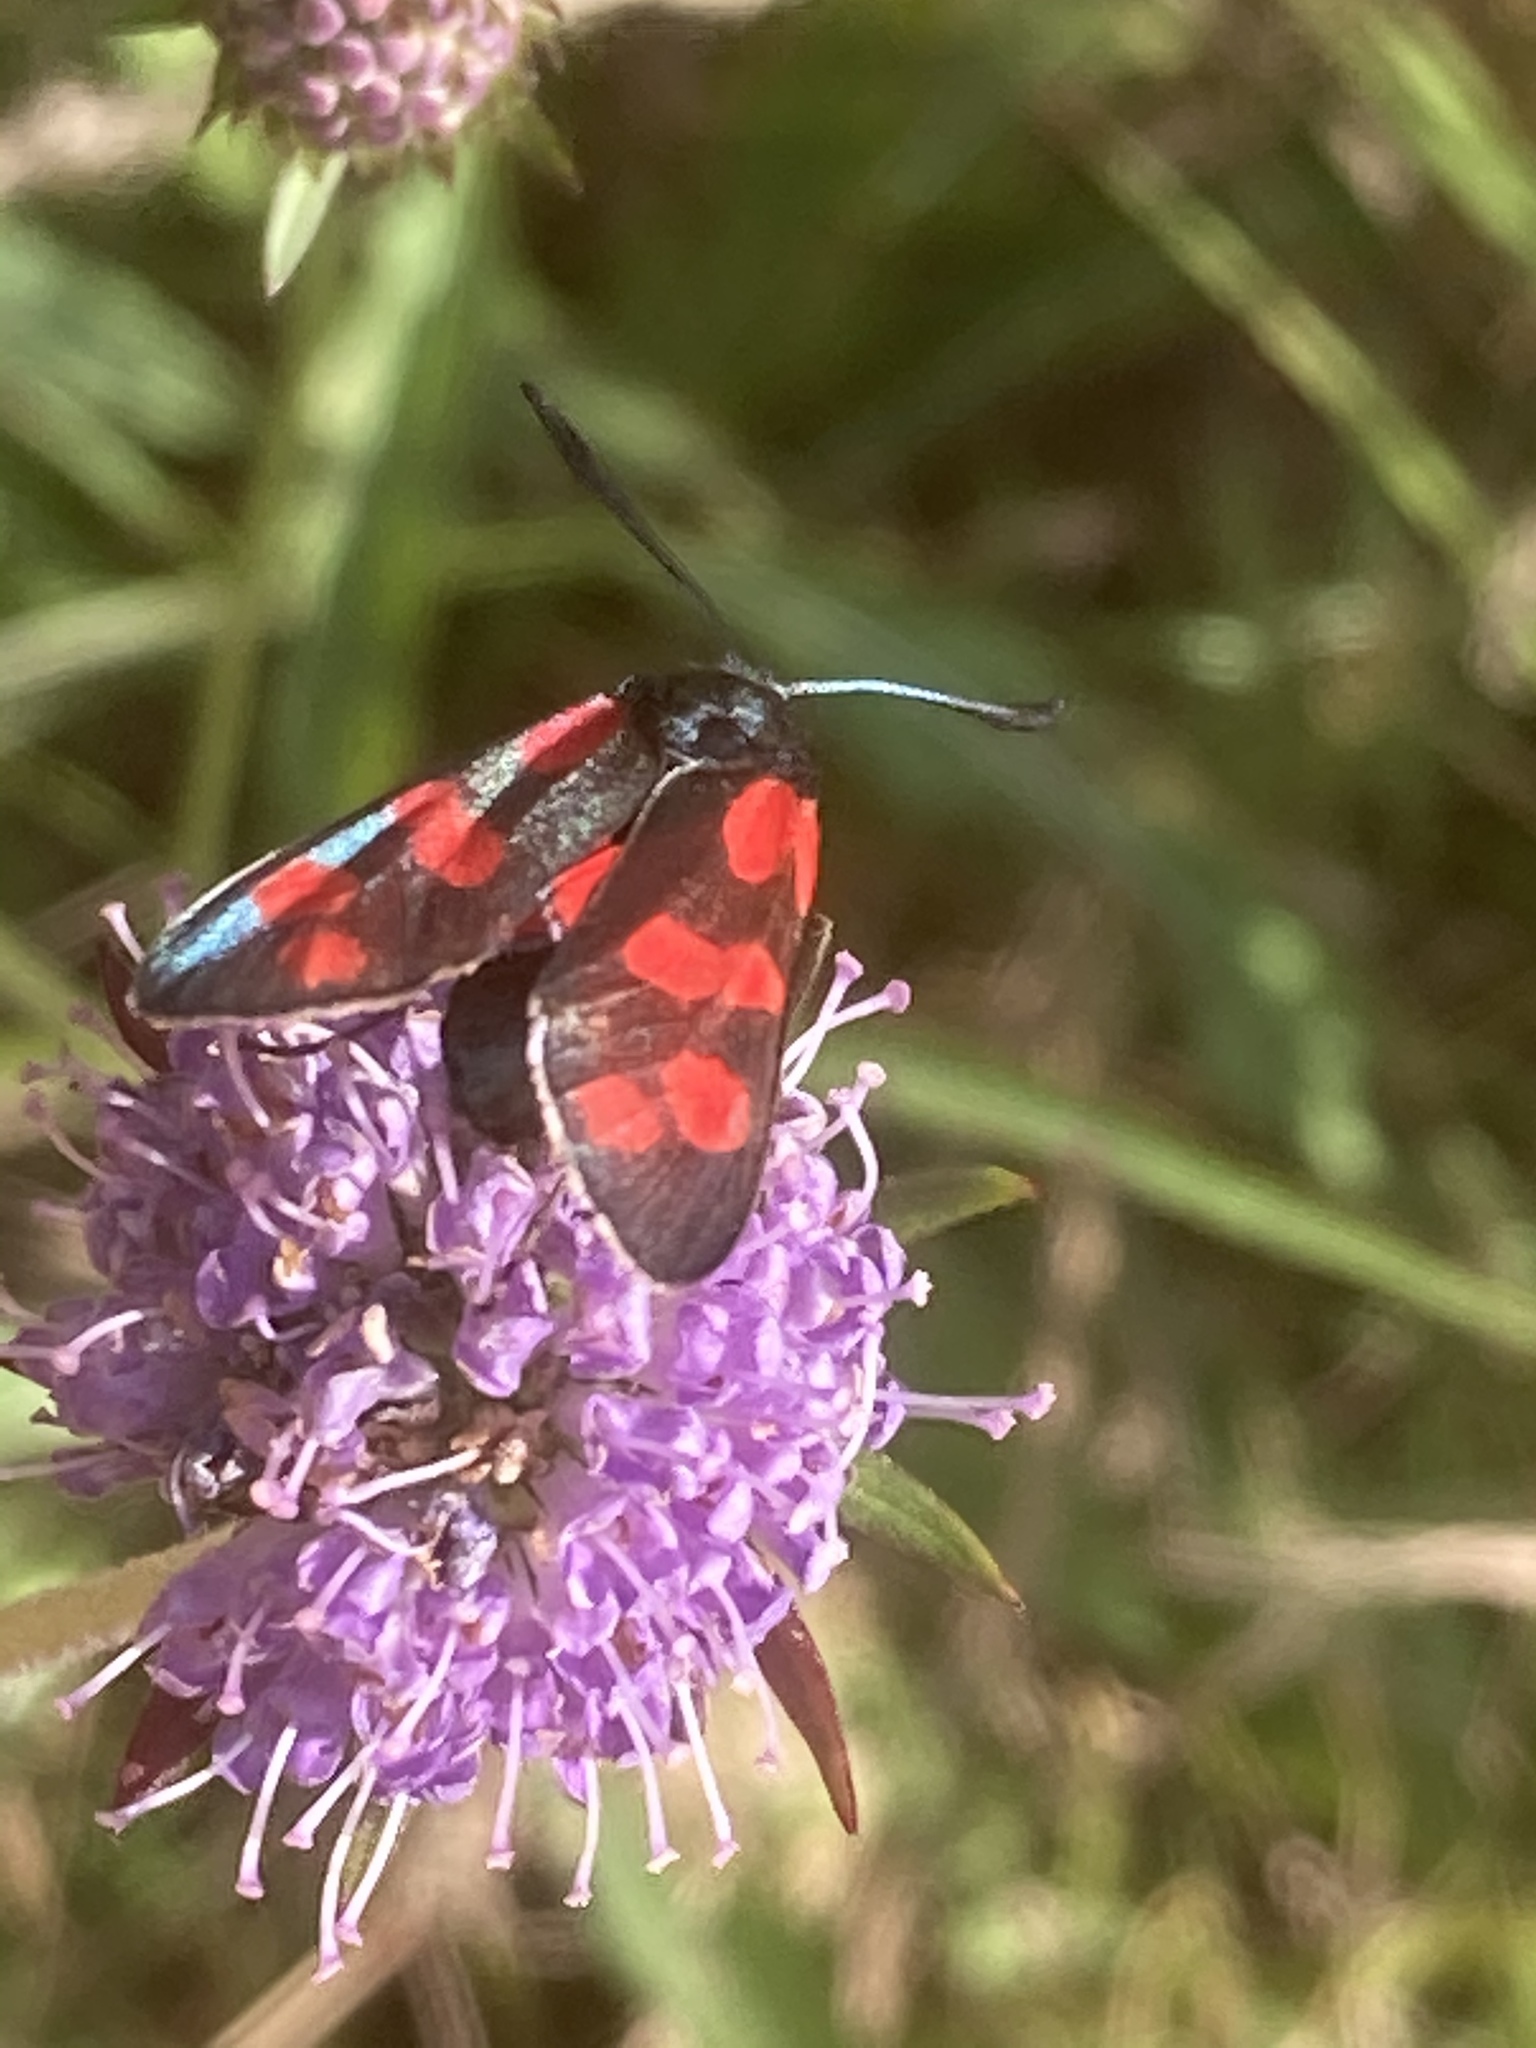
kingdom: Animalia
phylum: Arthropoda
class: Insecta
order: Lepidoptera
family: Zygaenidae
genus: Zygaena
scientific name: Zygaena filipendulae
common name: Six-spot burnet
